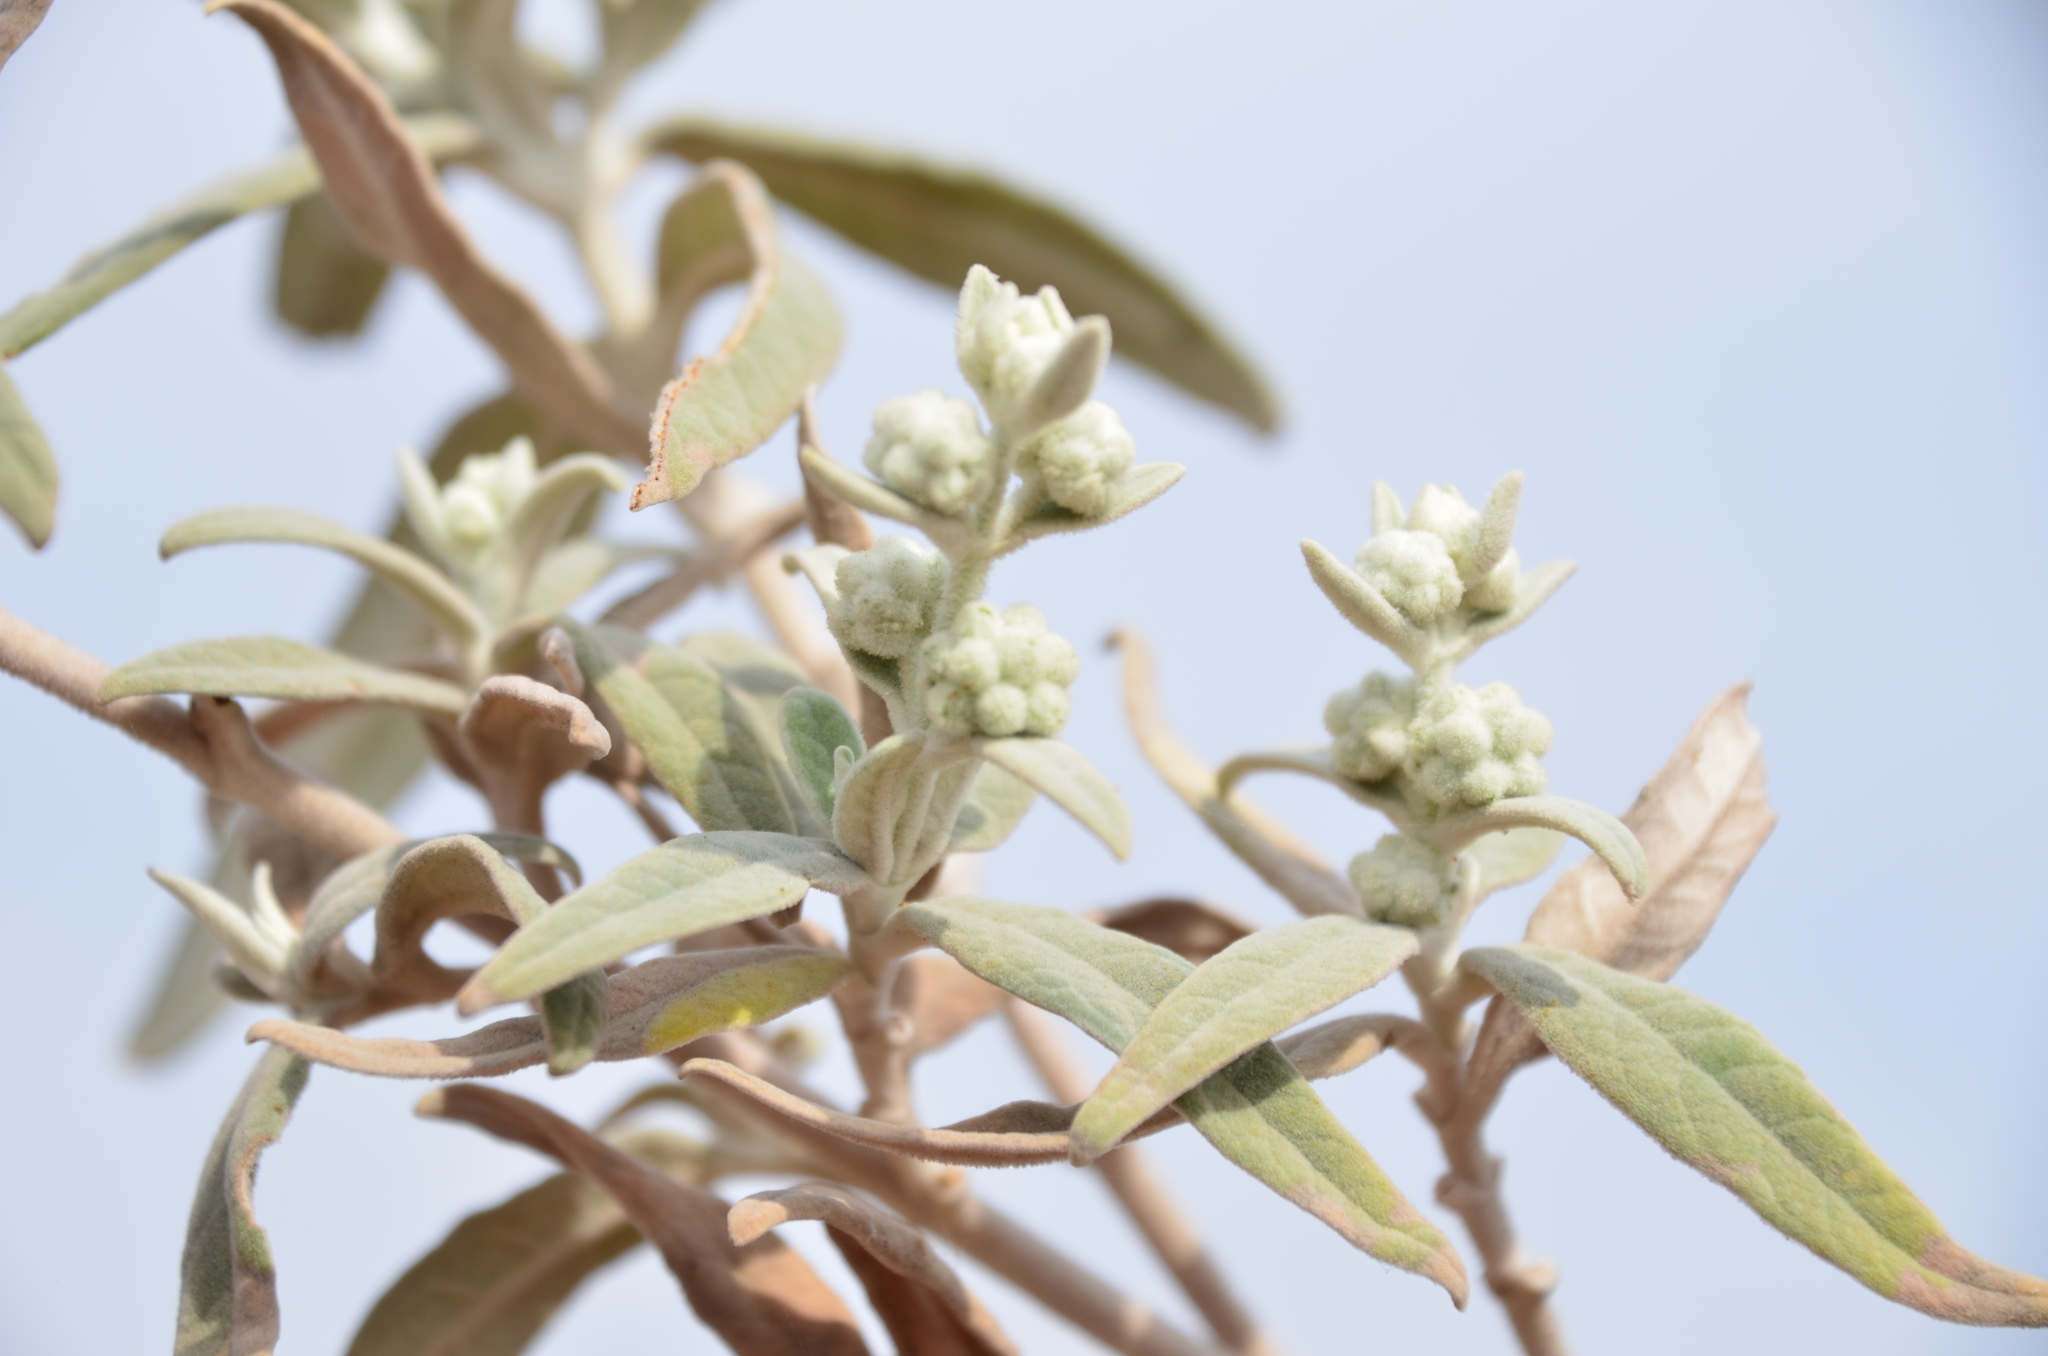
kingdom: Plantae
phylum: Tracheophyta
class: Magnoliopsida
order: Lamiales
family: Scrophulariaceae
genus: Buddleja
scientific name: Buddleja cordobensis
